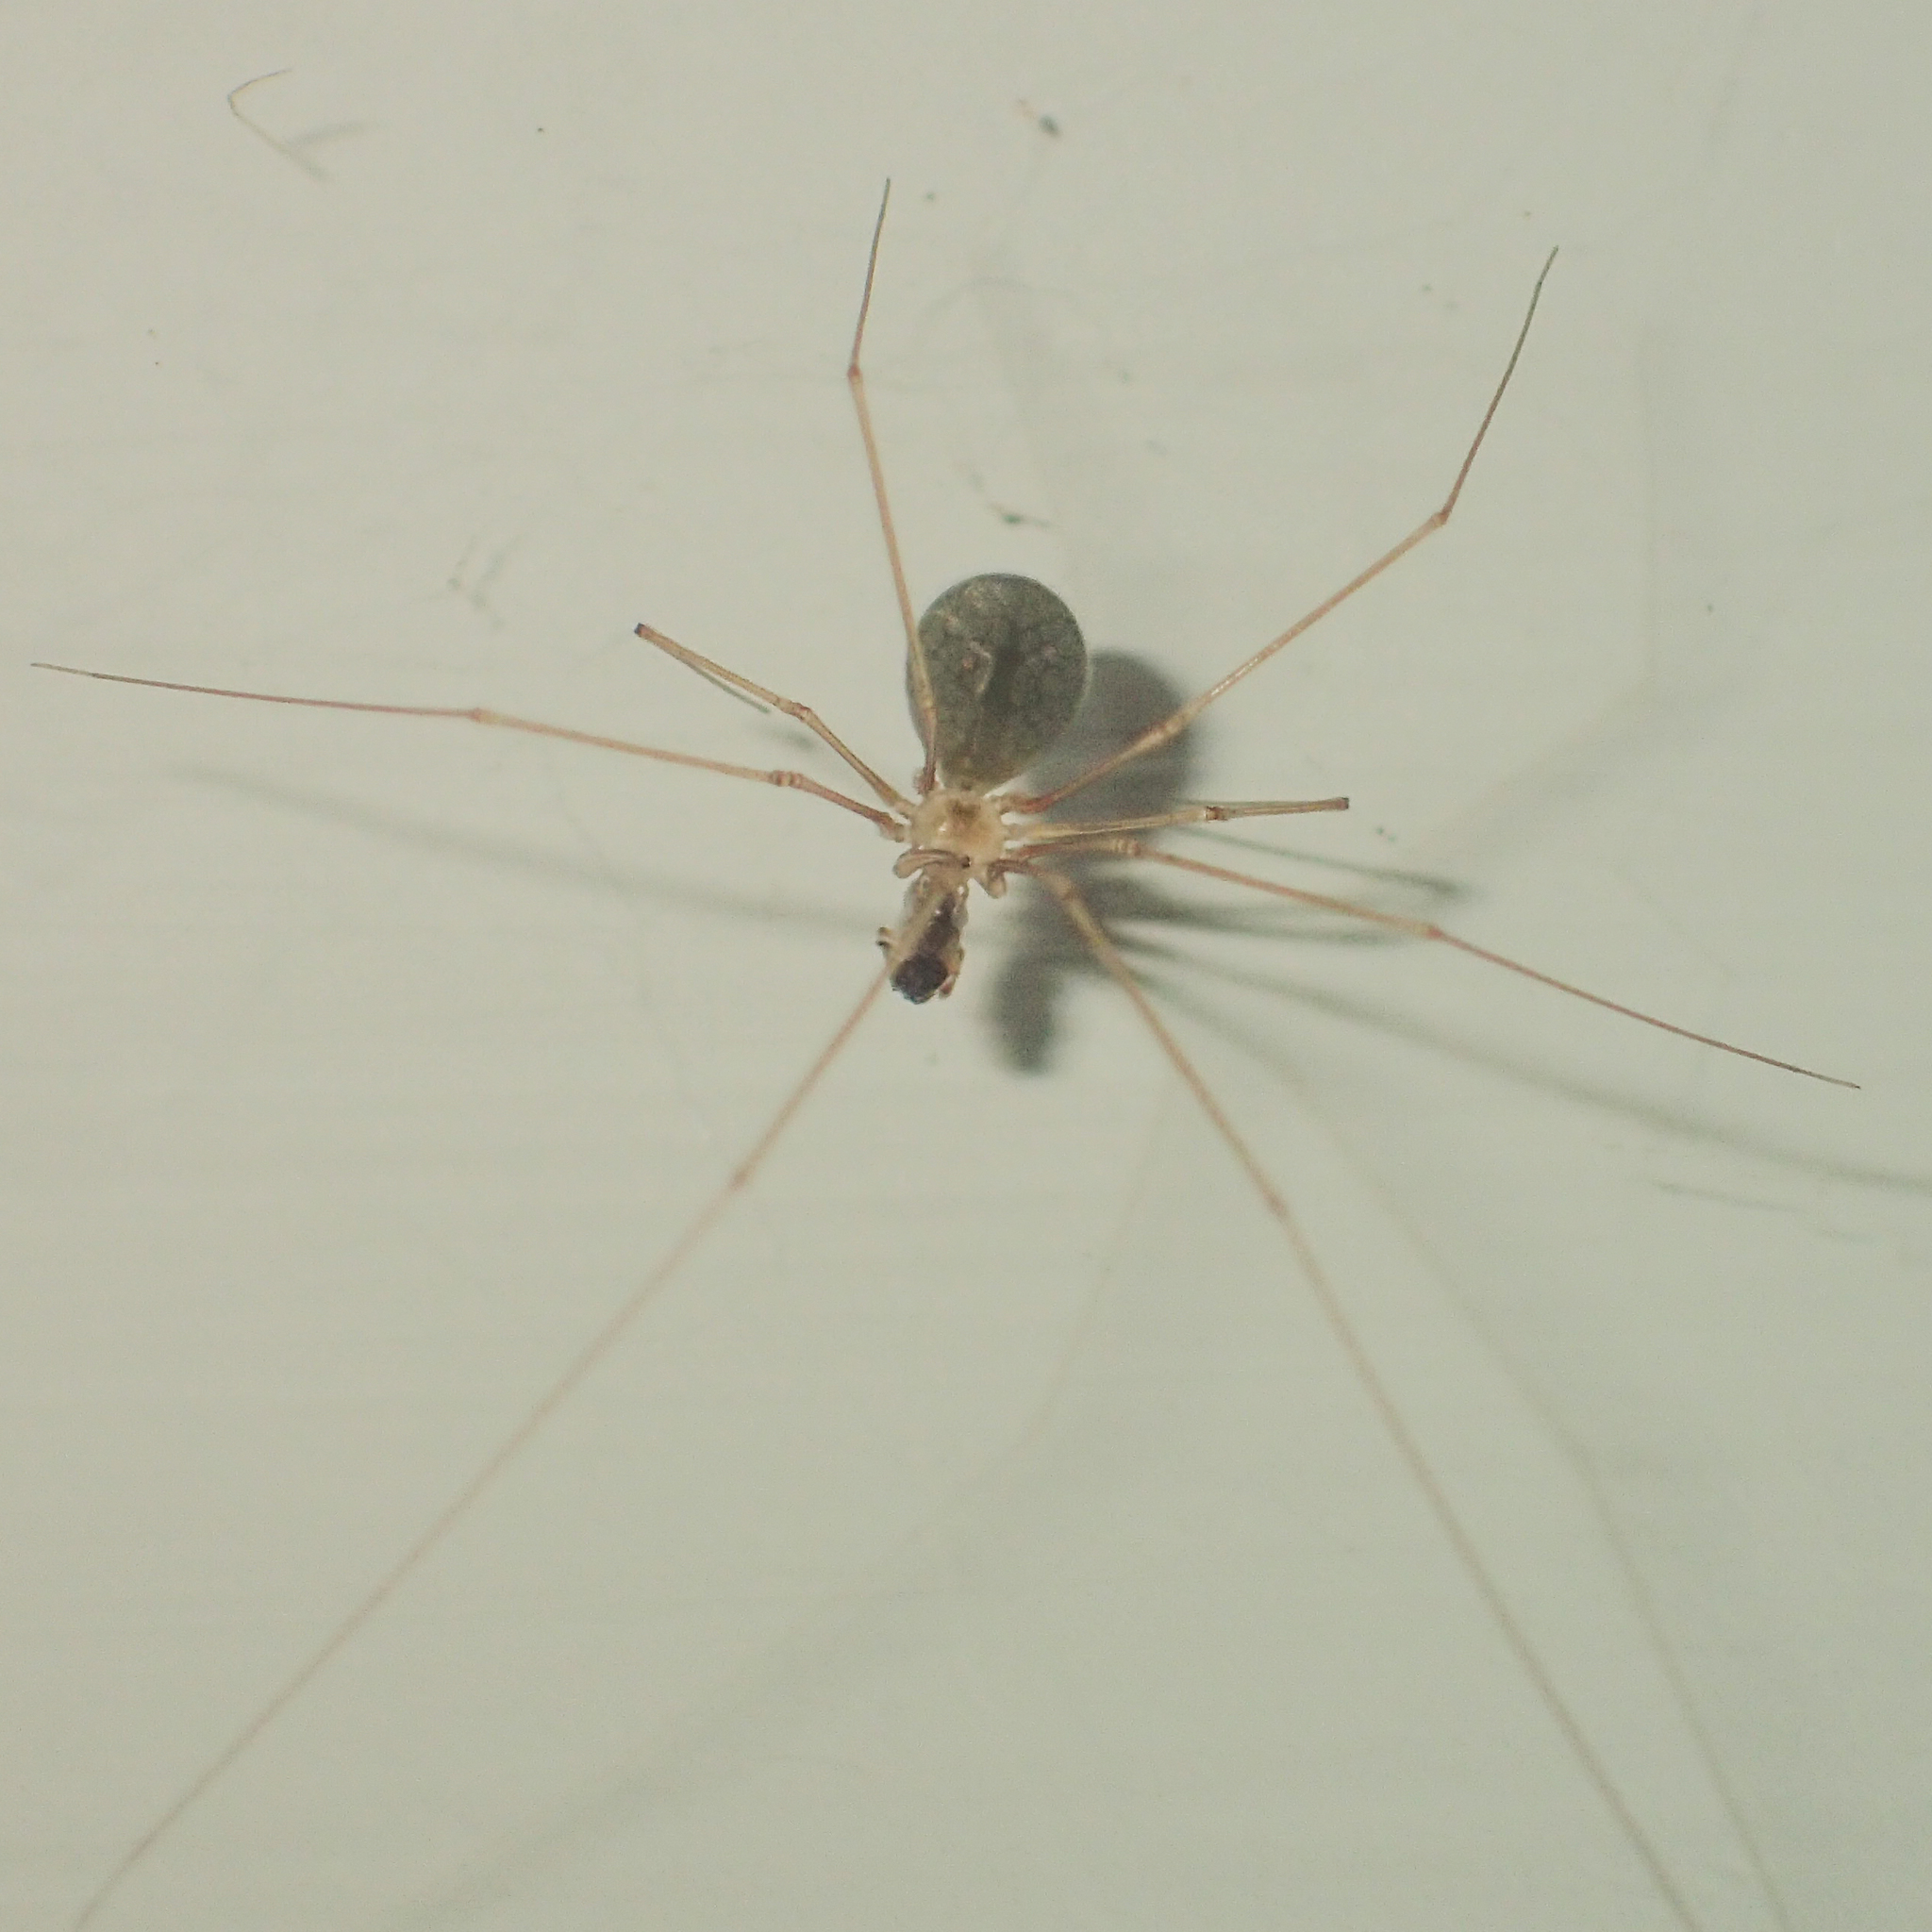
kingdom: Animalia
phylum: Arthropoda
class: Arachnida
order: Araneae
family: Pholcidae
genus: Micropholcus
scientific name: Micropholcus fauroti
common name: Cellar spider
